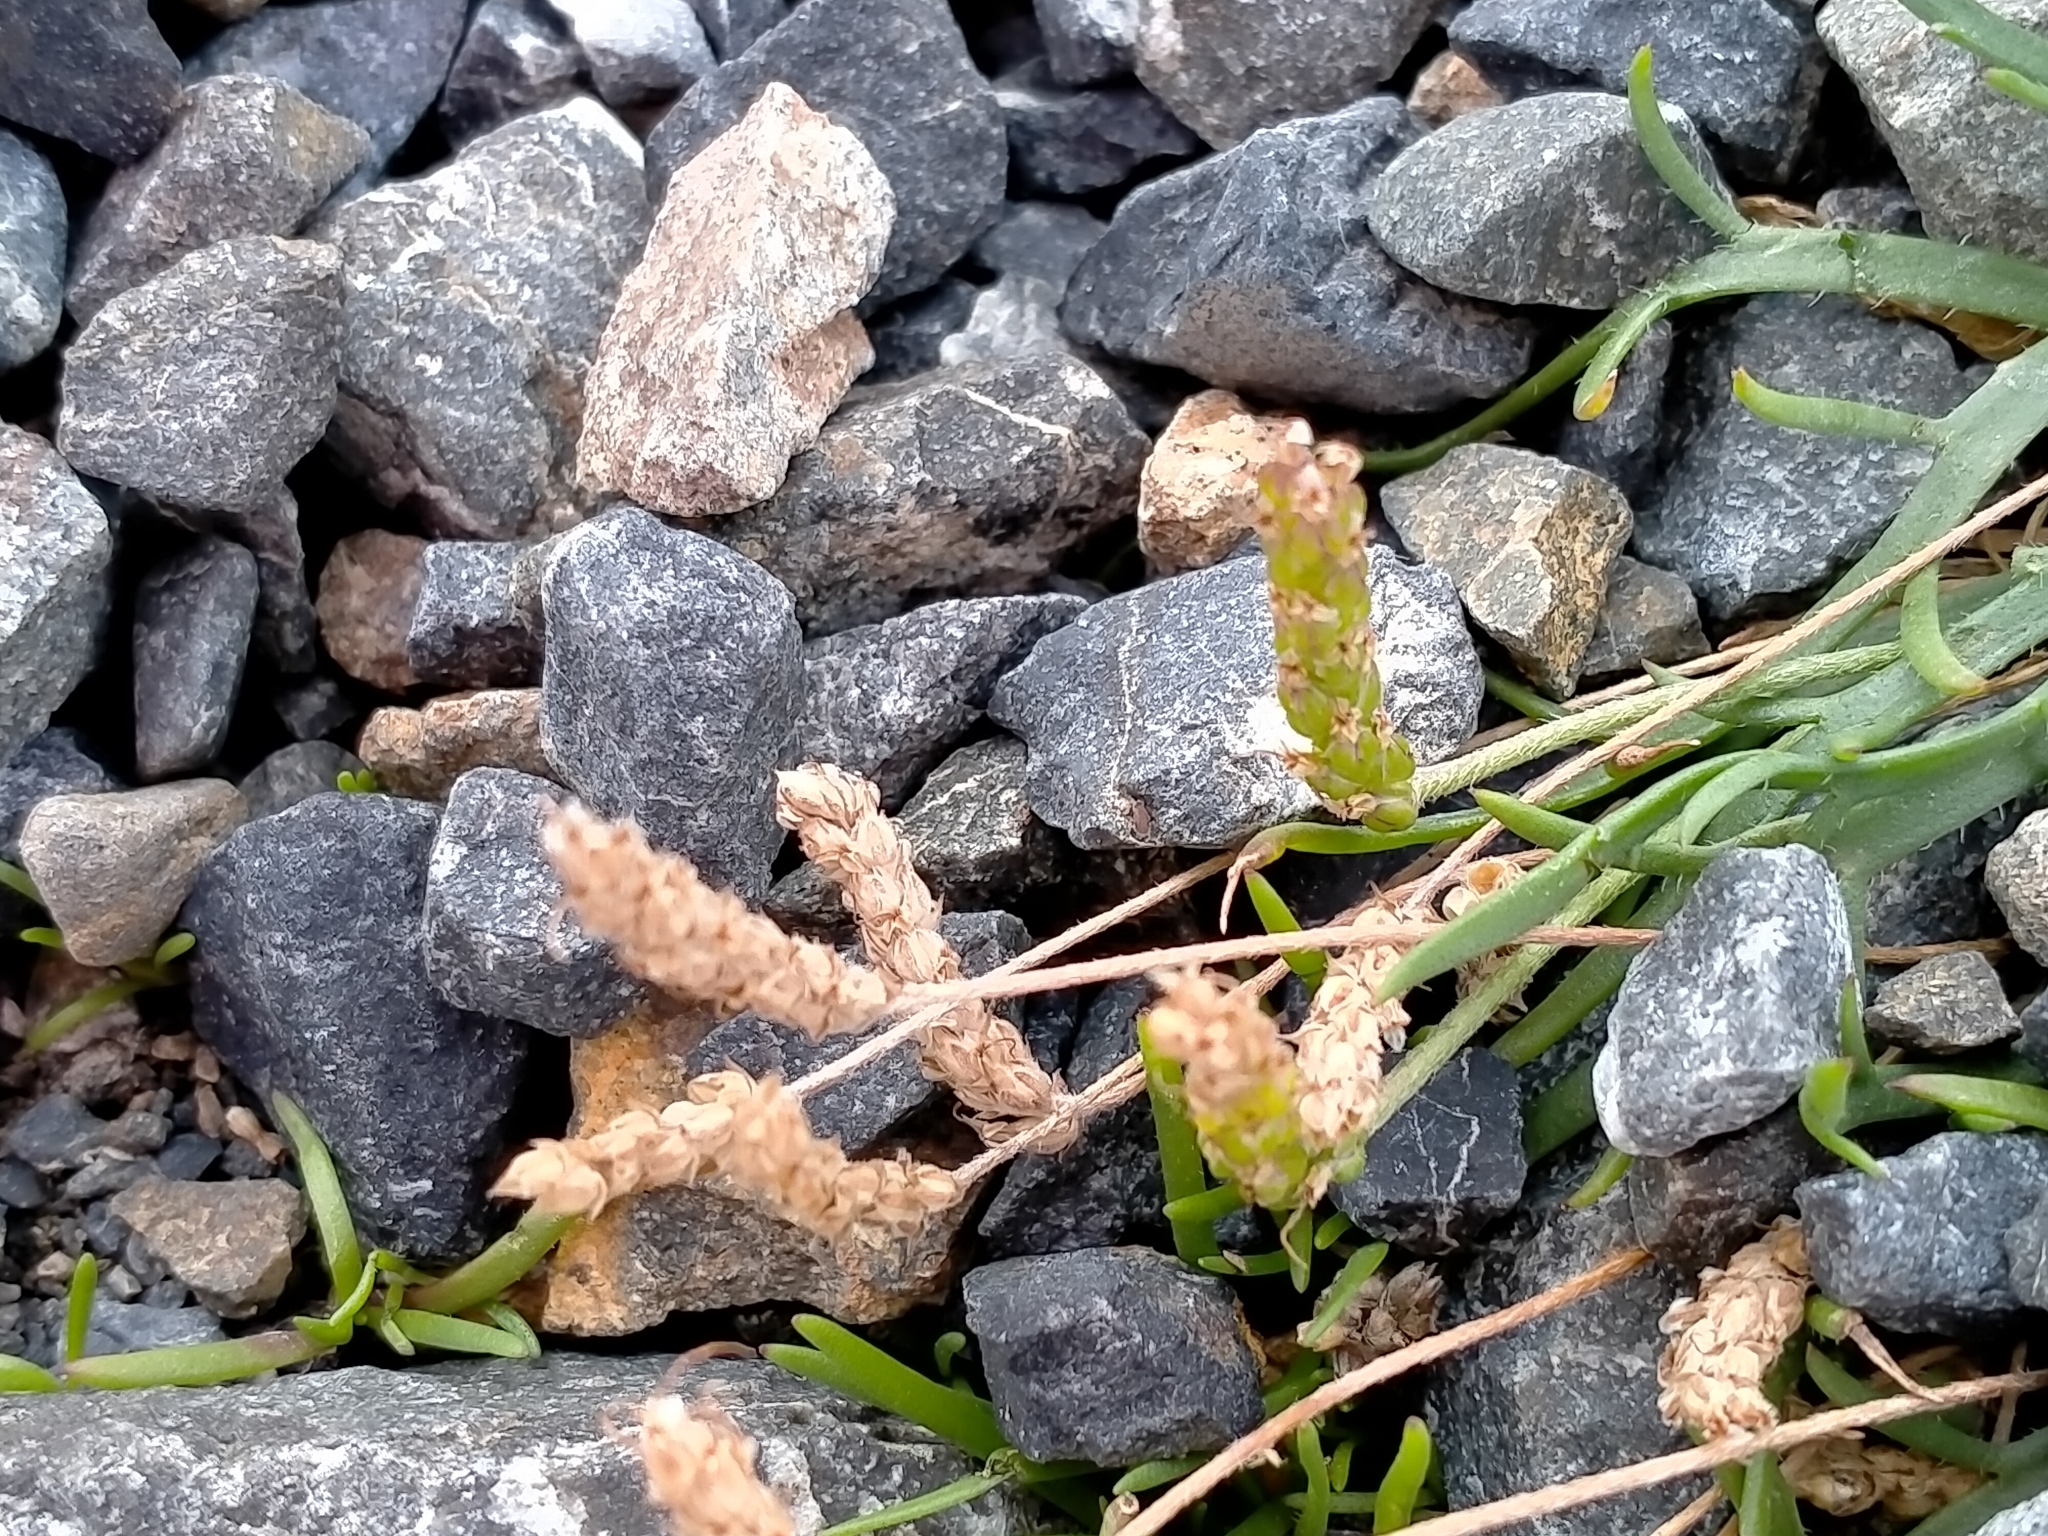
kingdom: Plantae
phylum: Tracheophyta
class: Magnoliopsida
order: Lamiales
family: Plantaginaceae
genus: Plantago
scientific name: Plantago coronopus
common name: Buck's-horn plantain
